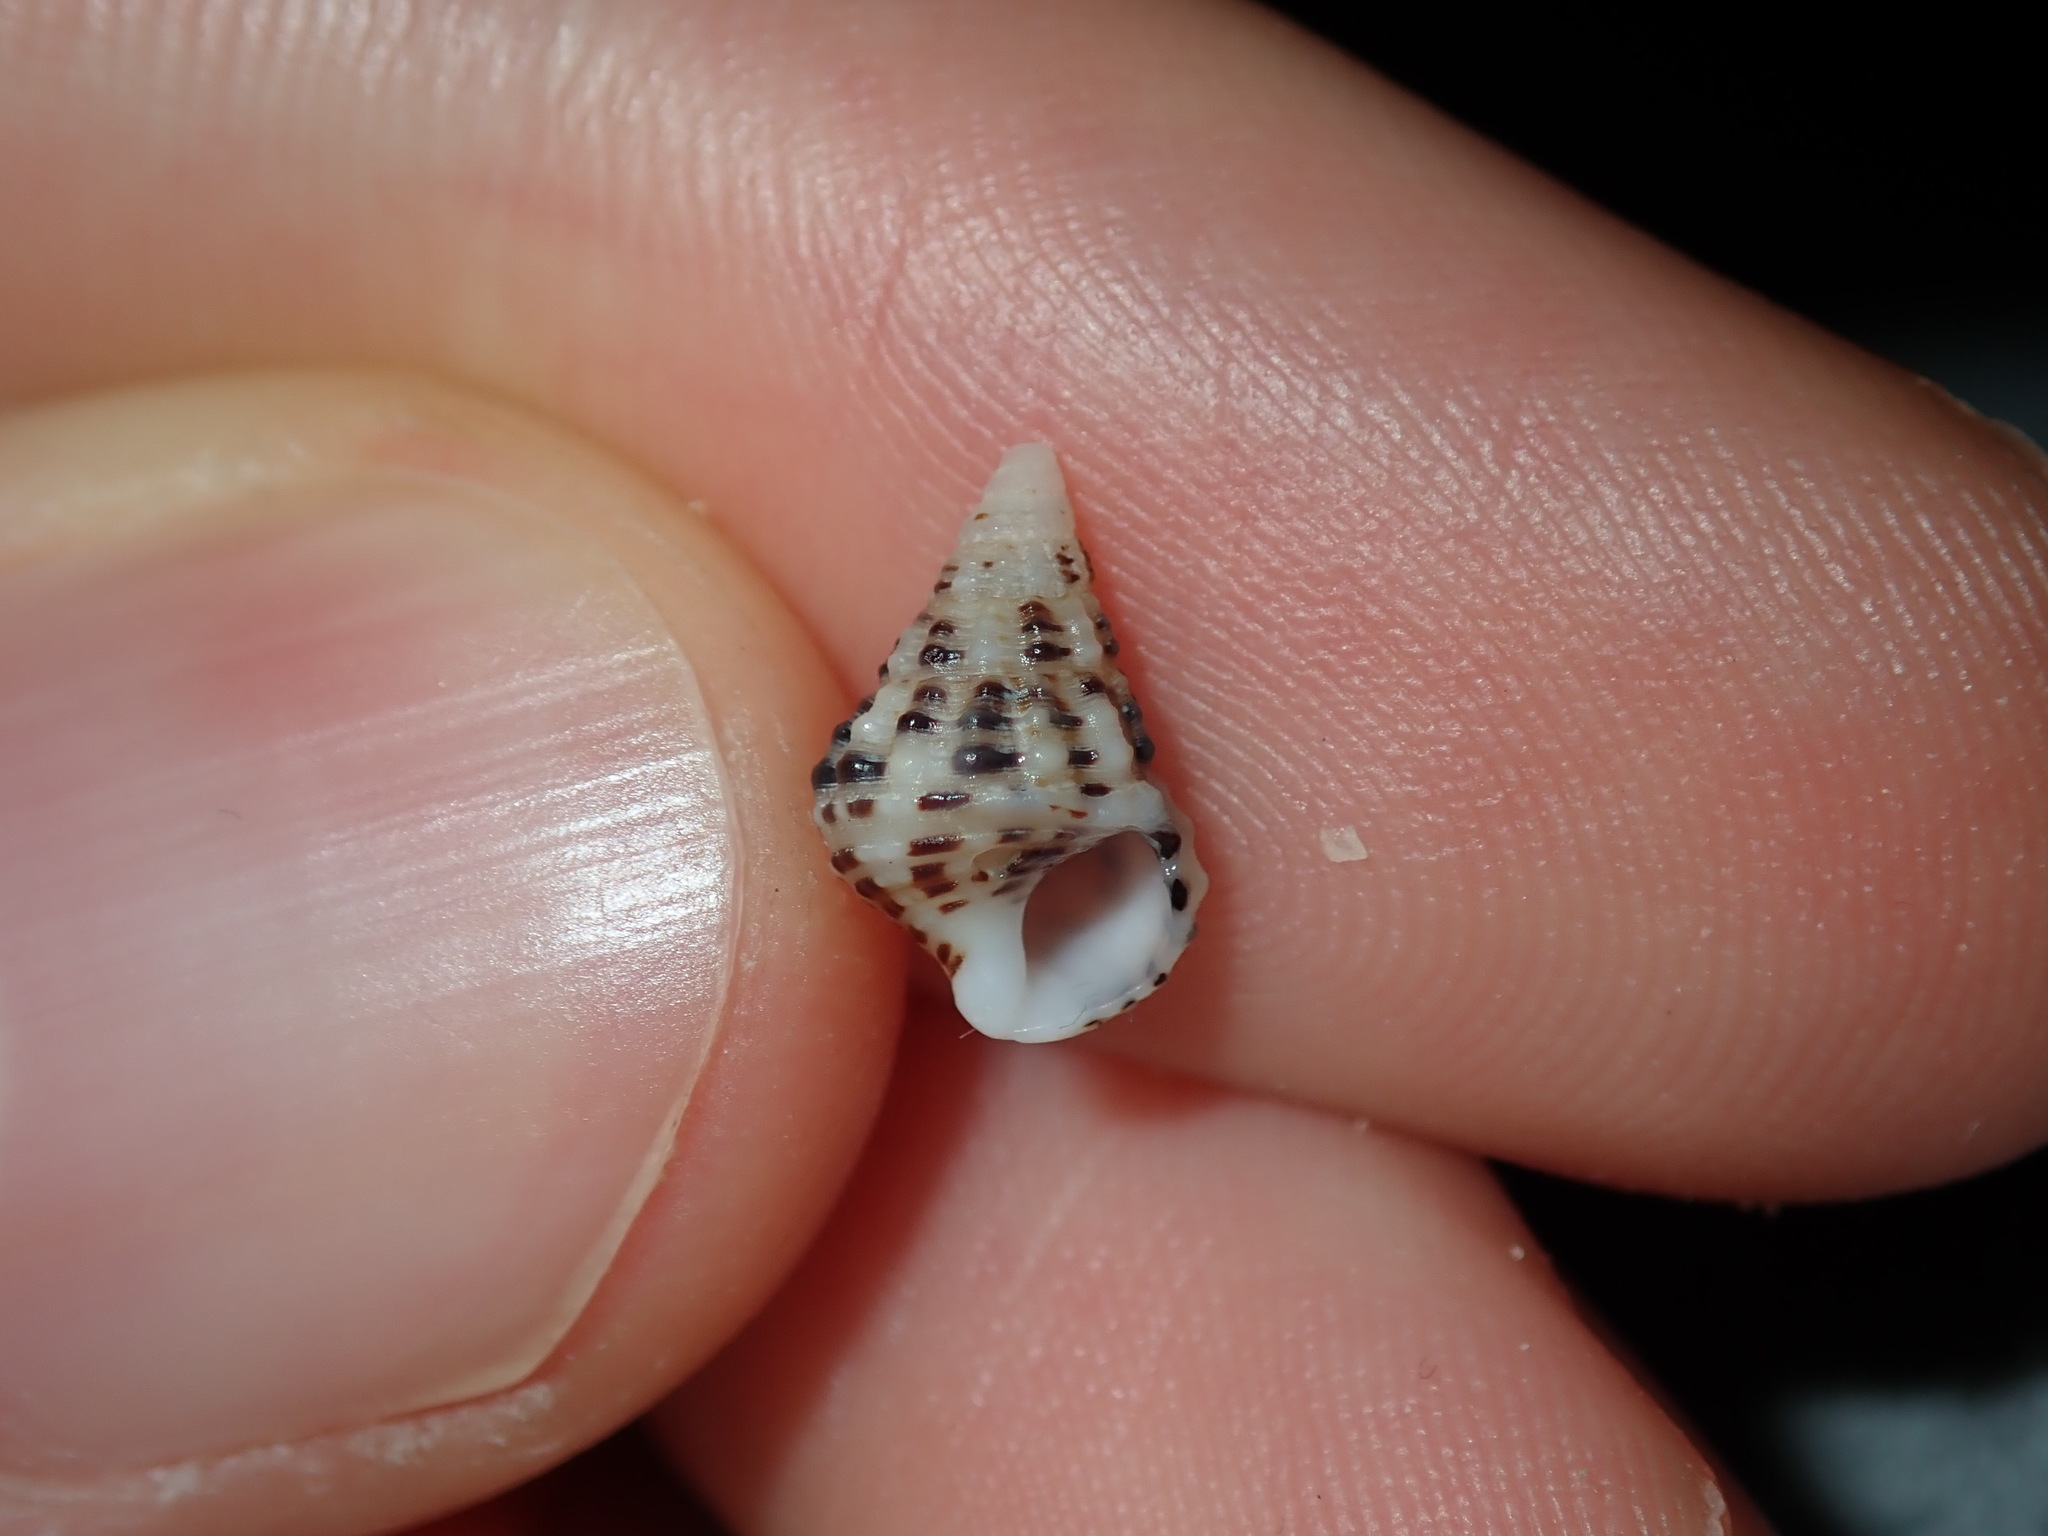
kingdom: Animalia
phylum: Mollusca
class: Gastropoda
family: Cerithiidae
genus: Clypeomorus
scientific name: Clypeomorus petrosa
